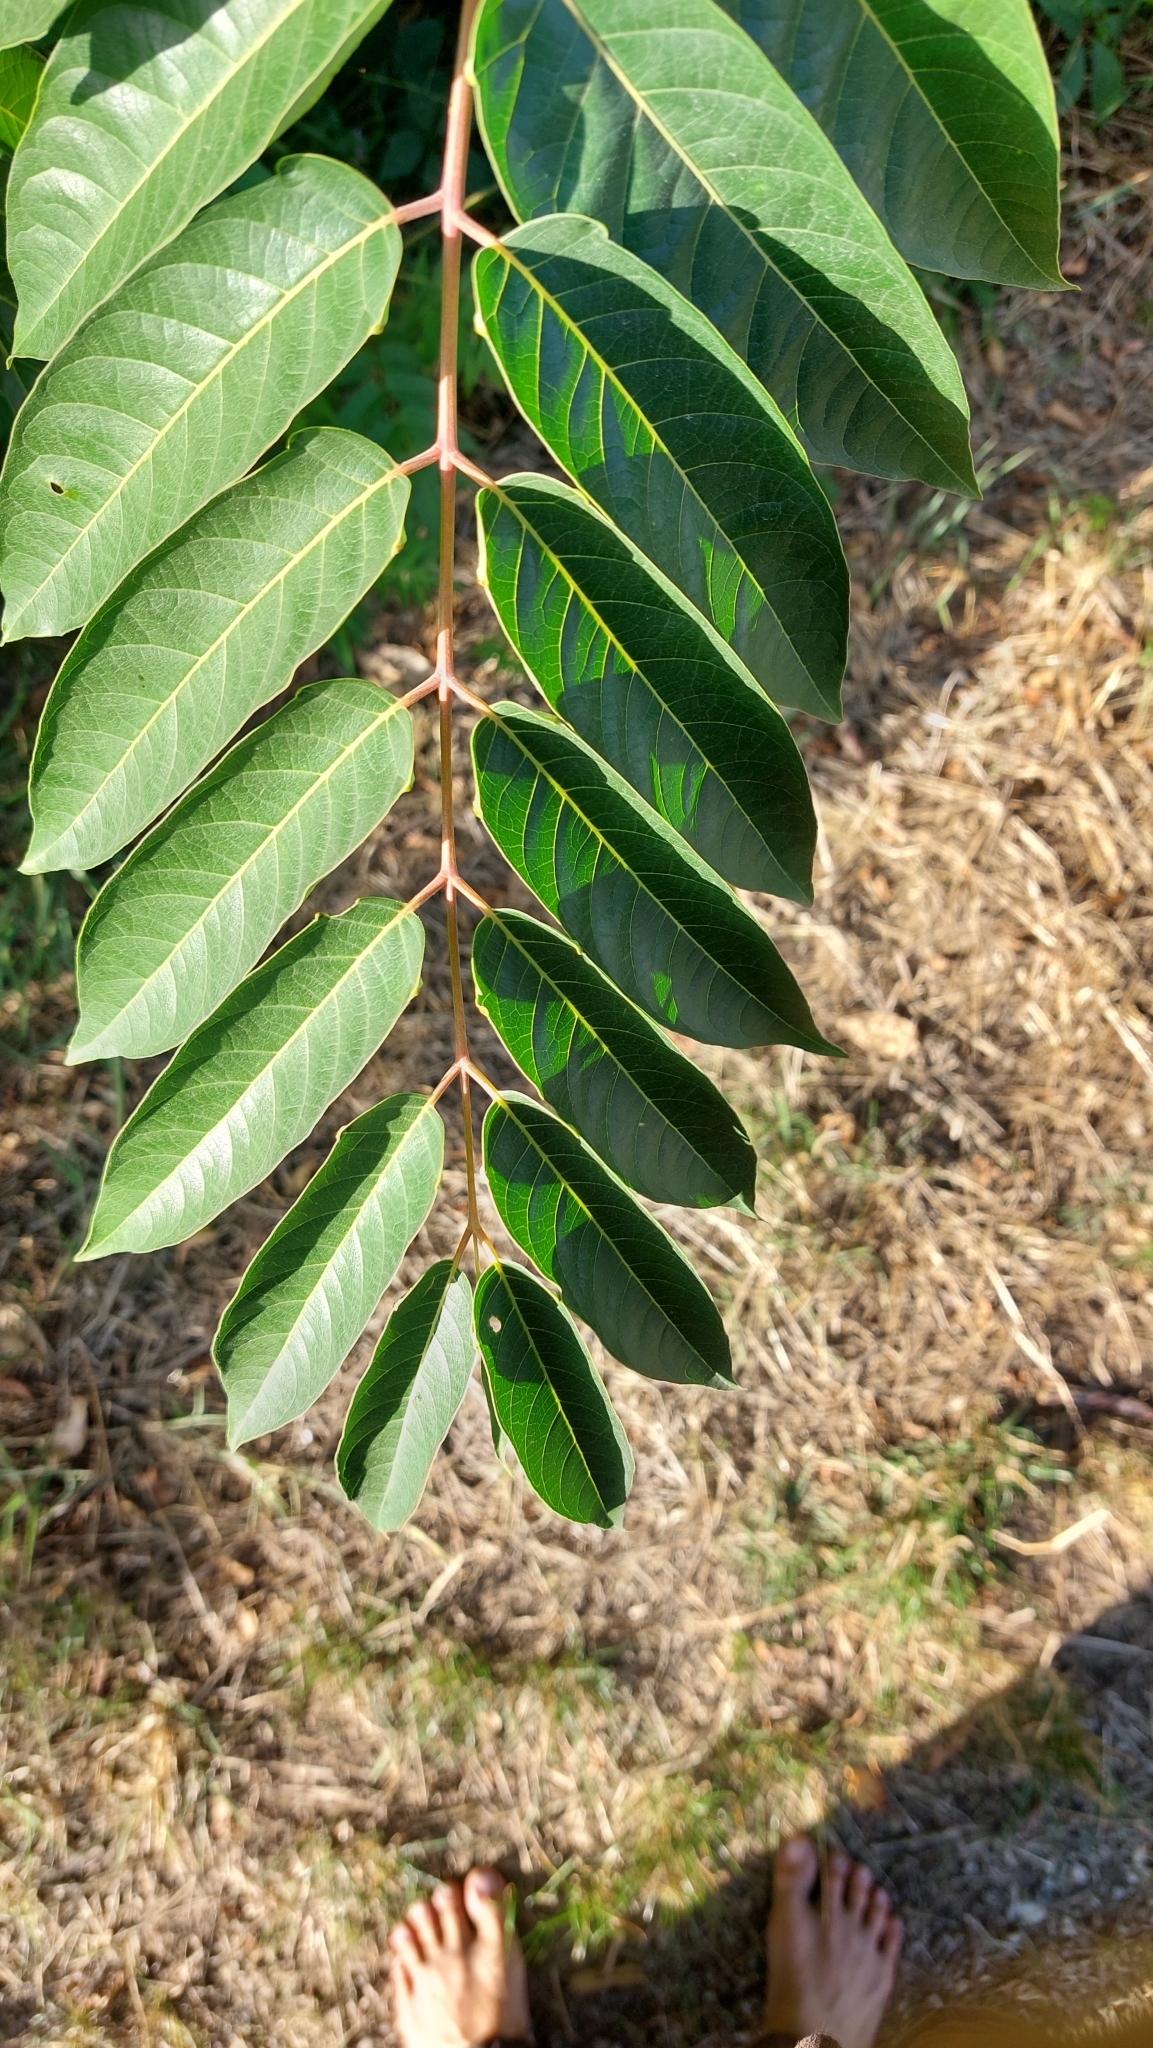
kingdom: Plantae
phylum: Tracheophyta
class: Magnoliopsida
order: Sapindales
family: Simaroubaceae
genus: Ailanthus
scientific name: Ailanthus altissima
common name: Tree-of-heaven
